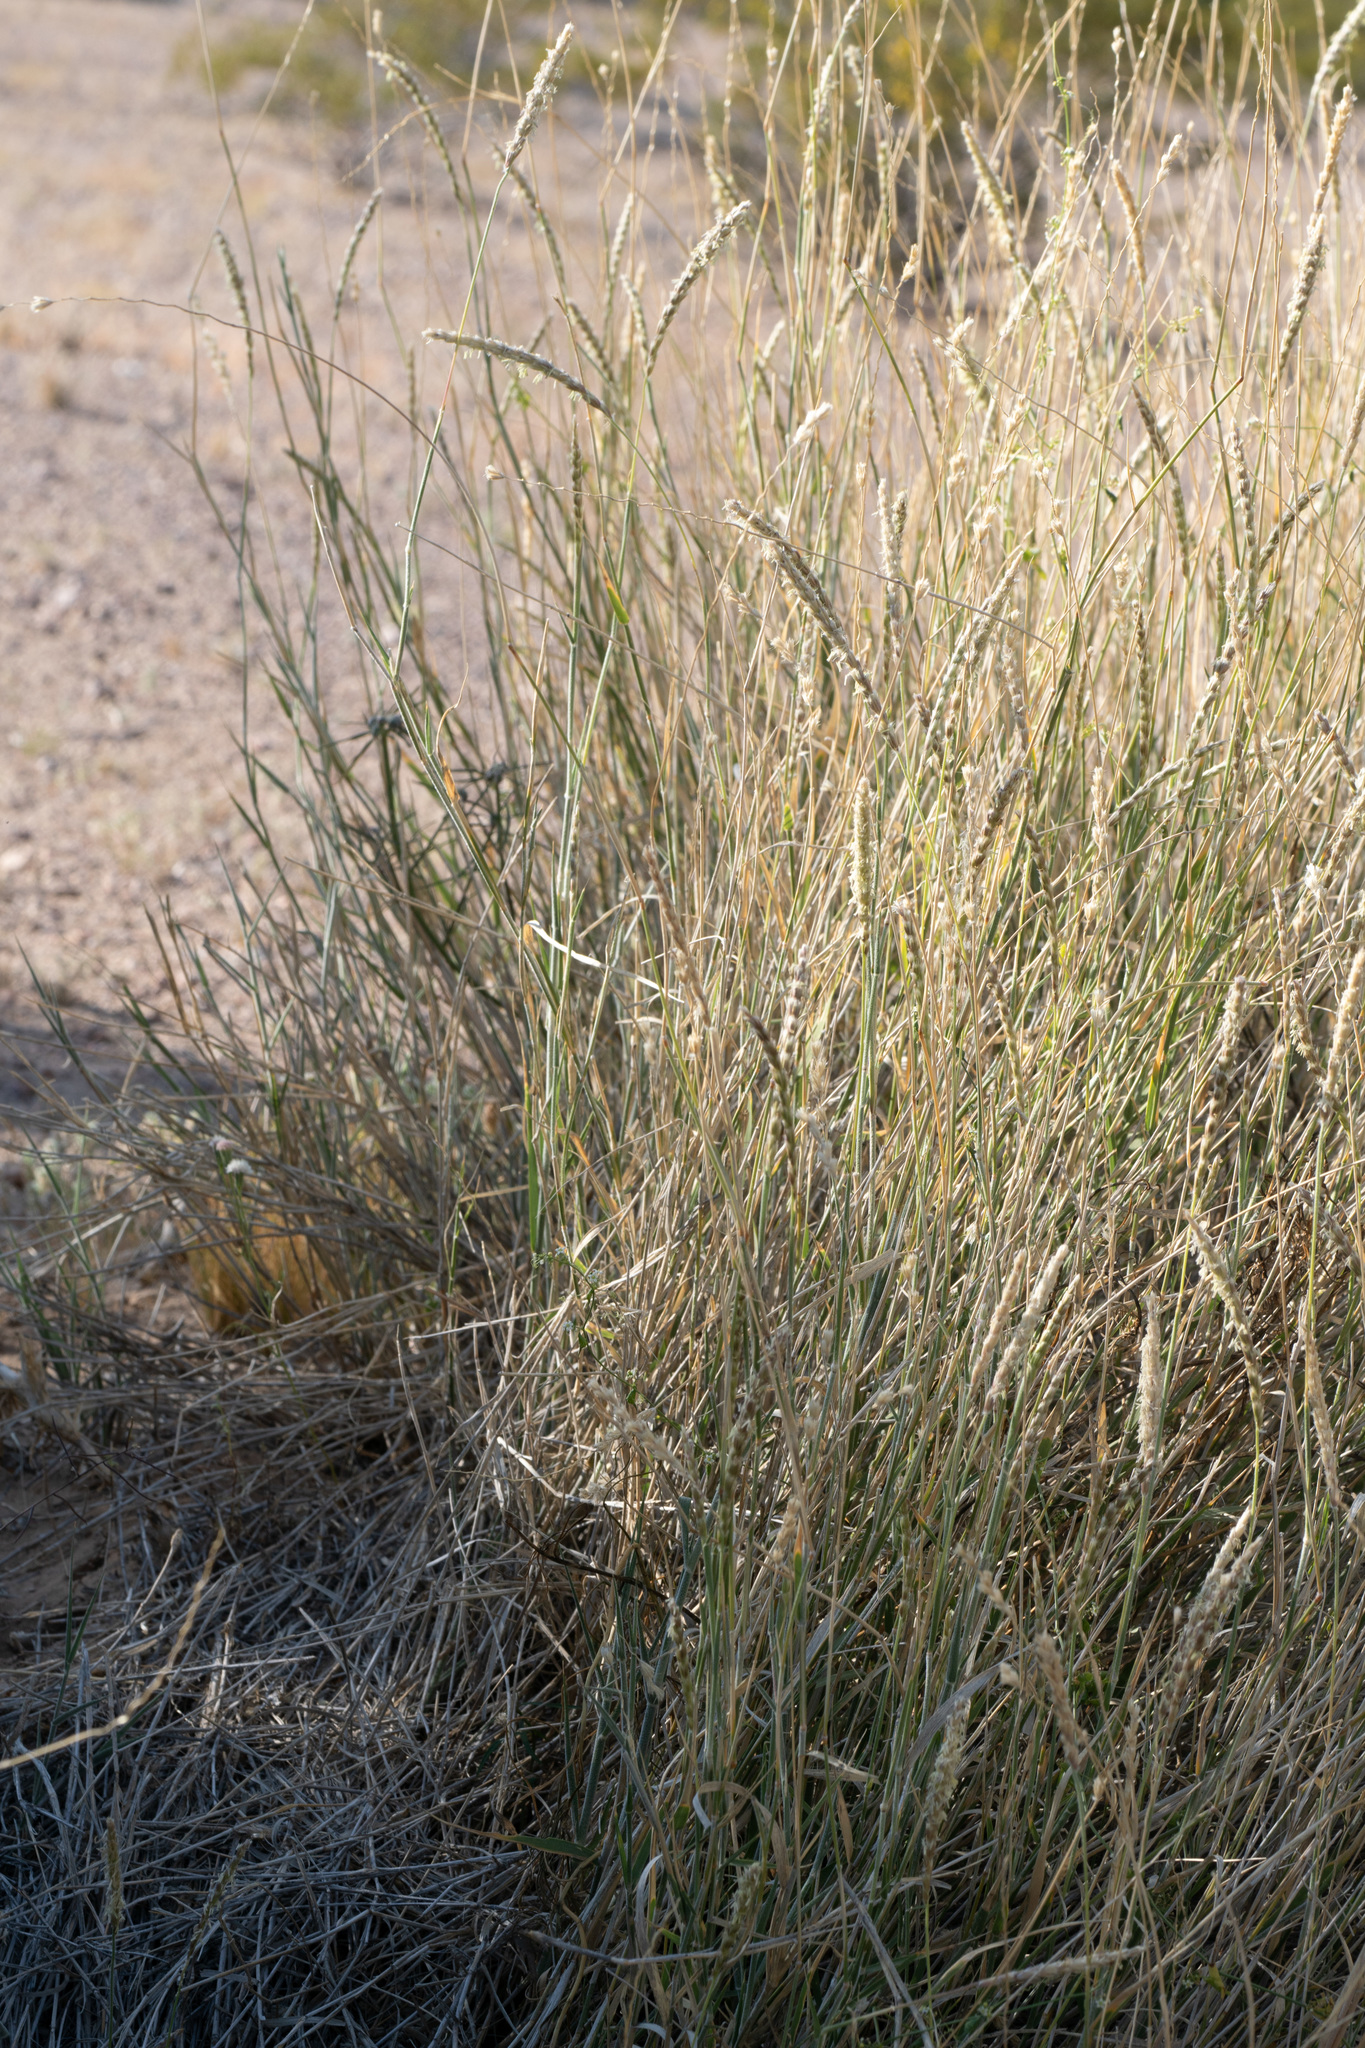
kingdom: Plantae
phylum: Tracheophyta
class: Liliopsida
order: Poales
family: Poaceae
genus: Hilaria
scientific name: Hilaria rigida
